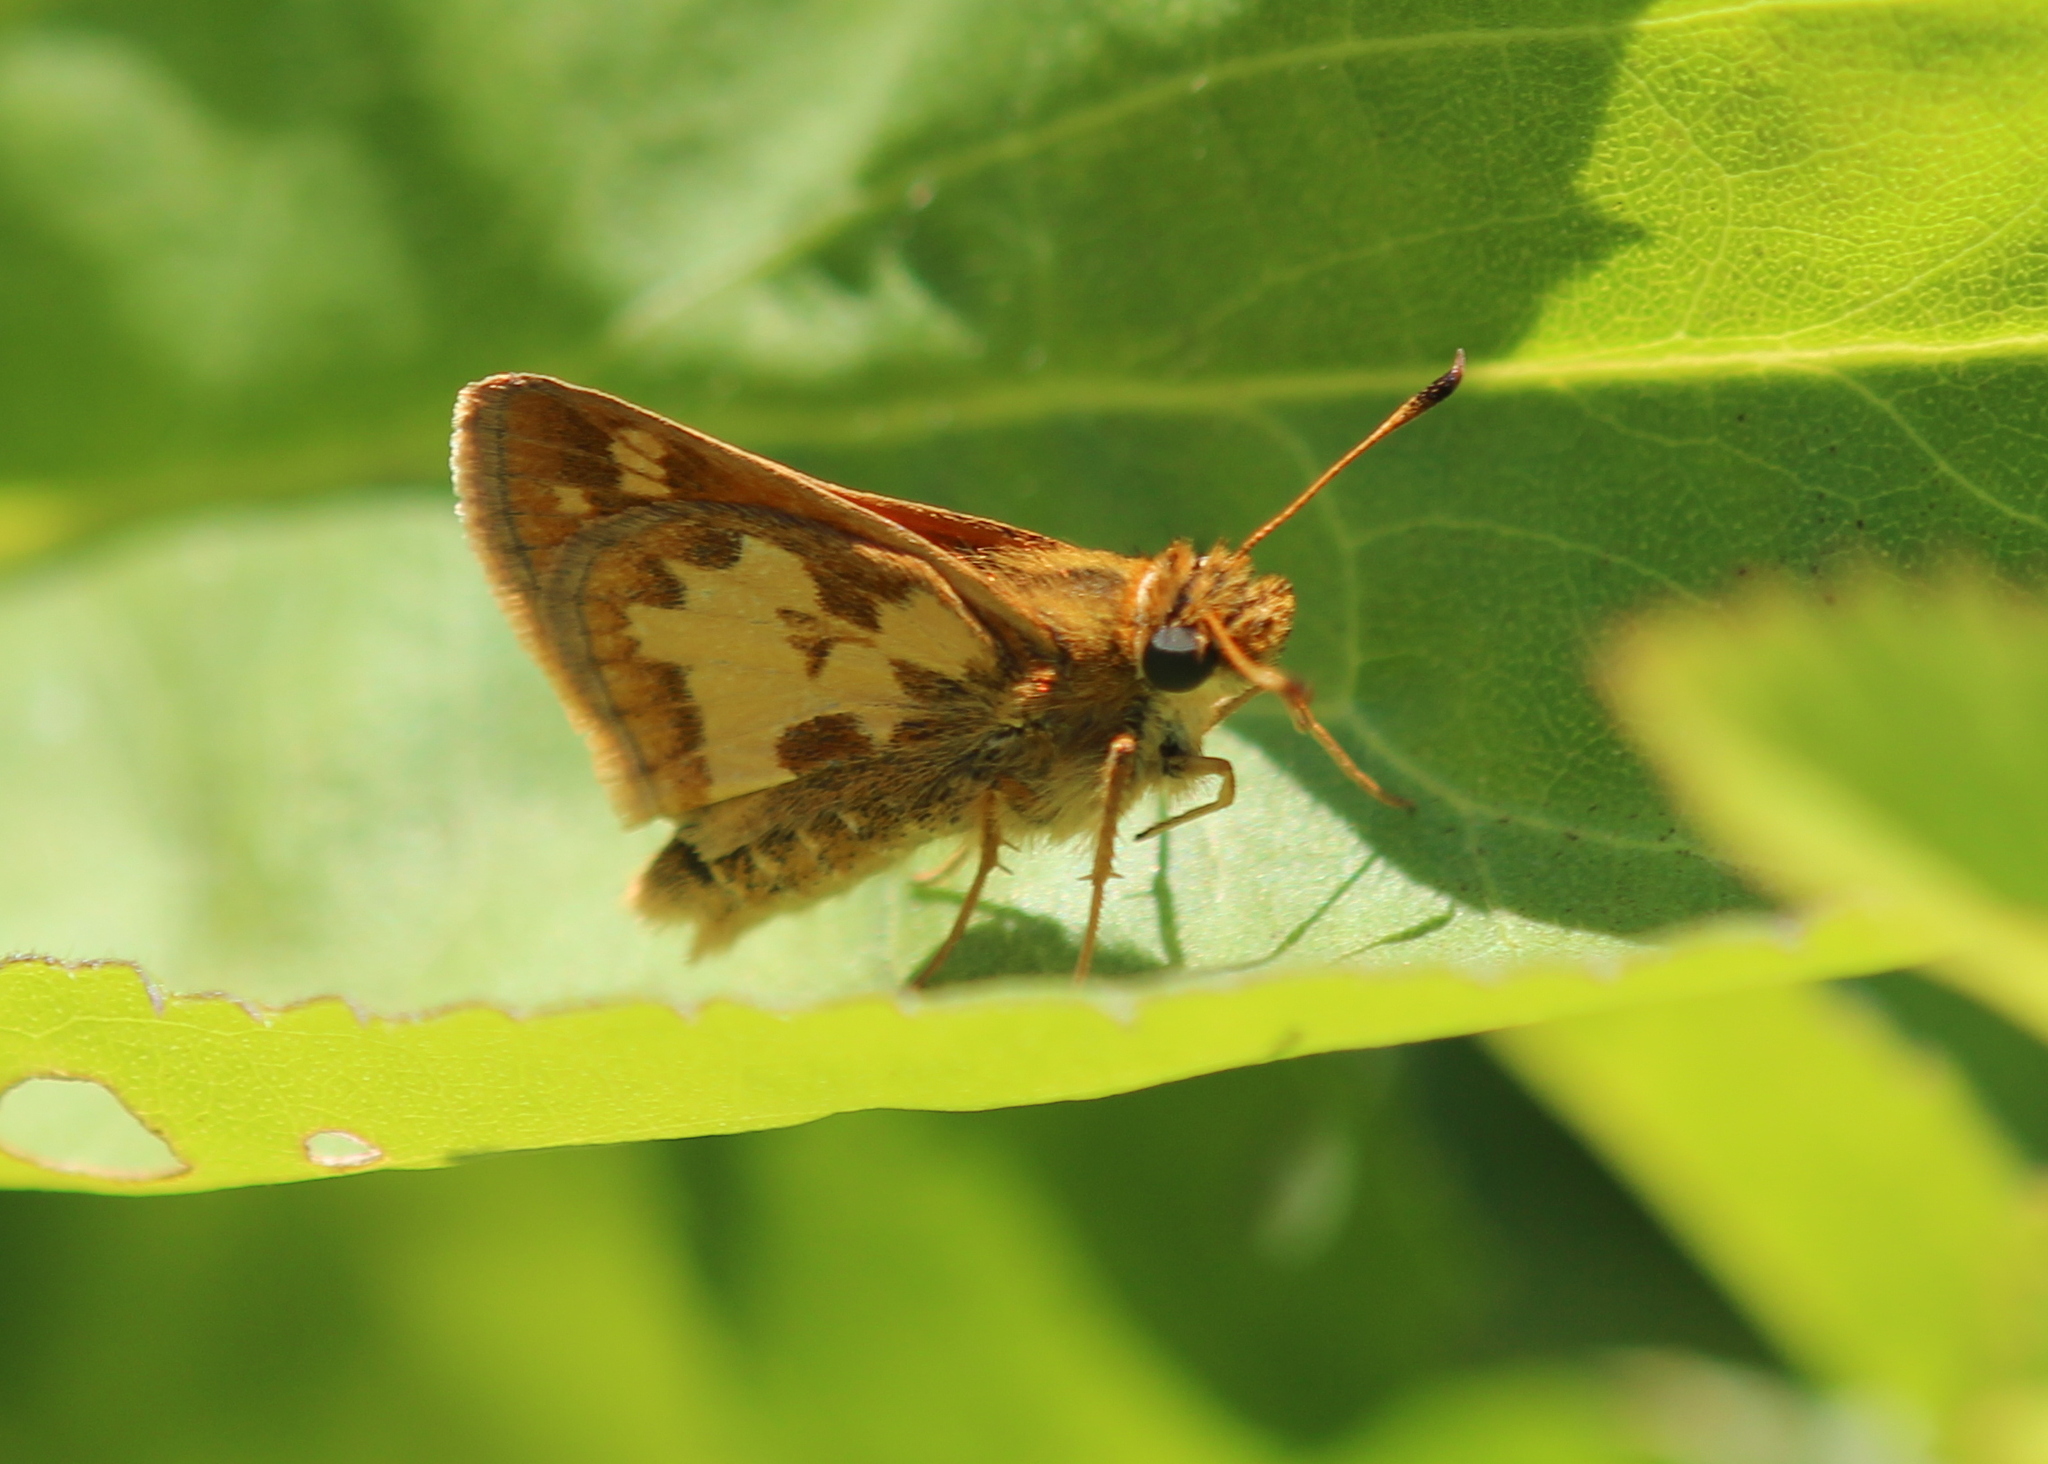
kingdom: Animalia
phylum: Arthropoda
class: Insecta
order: Lepidoptera
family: Hesperiidae
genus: Polites
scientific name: Polites coras
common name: Peck's skipper
